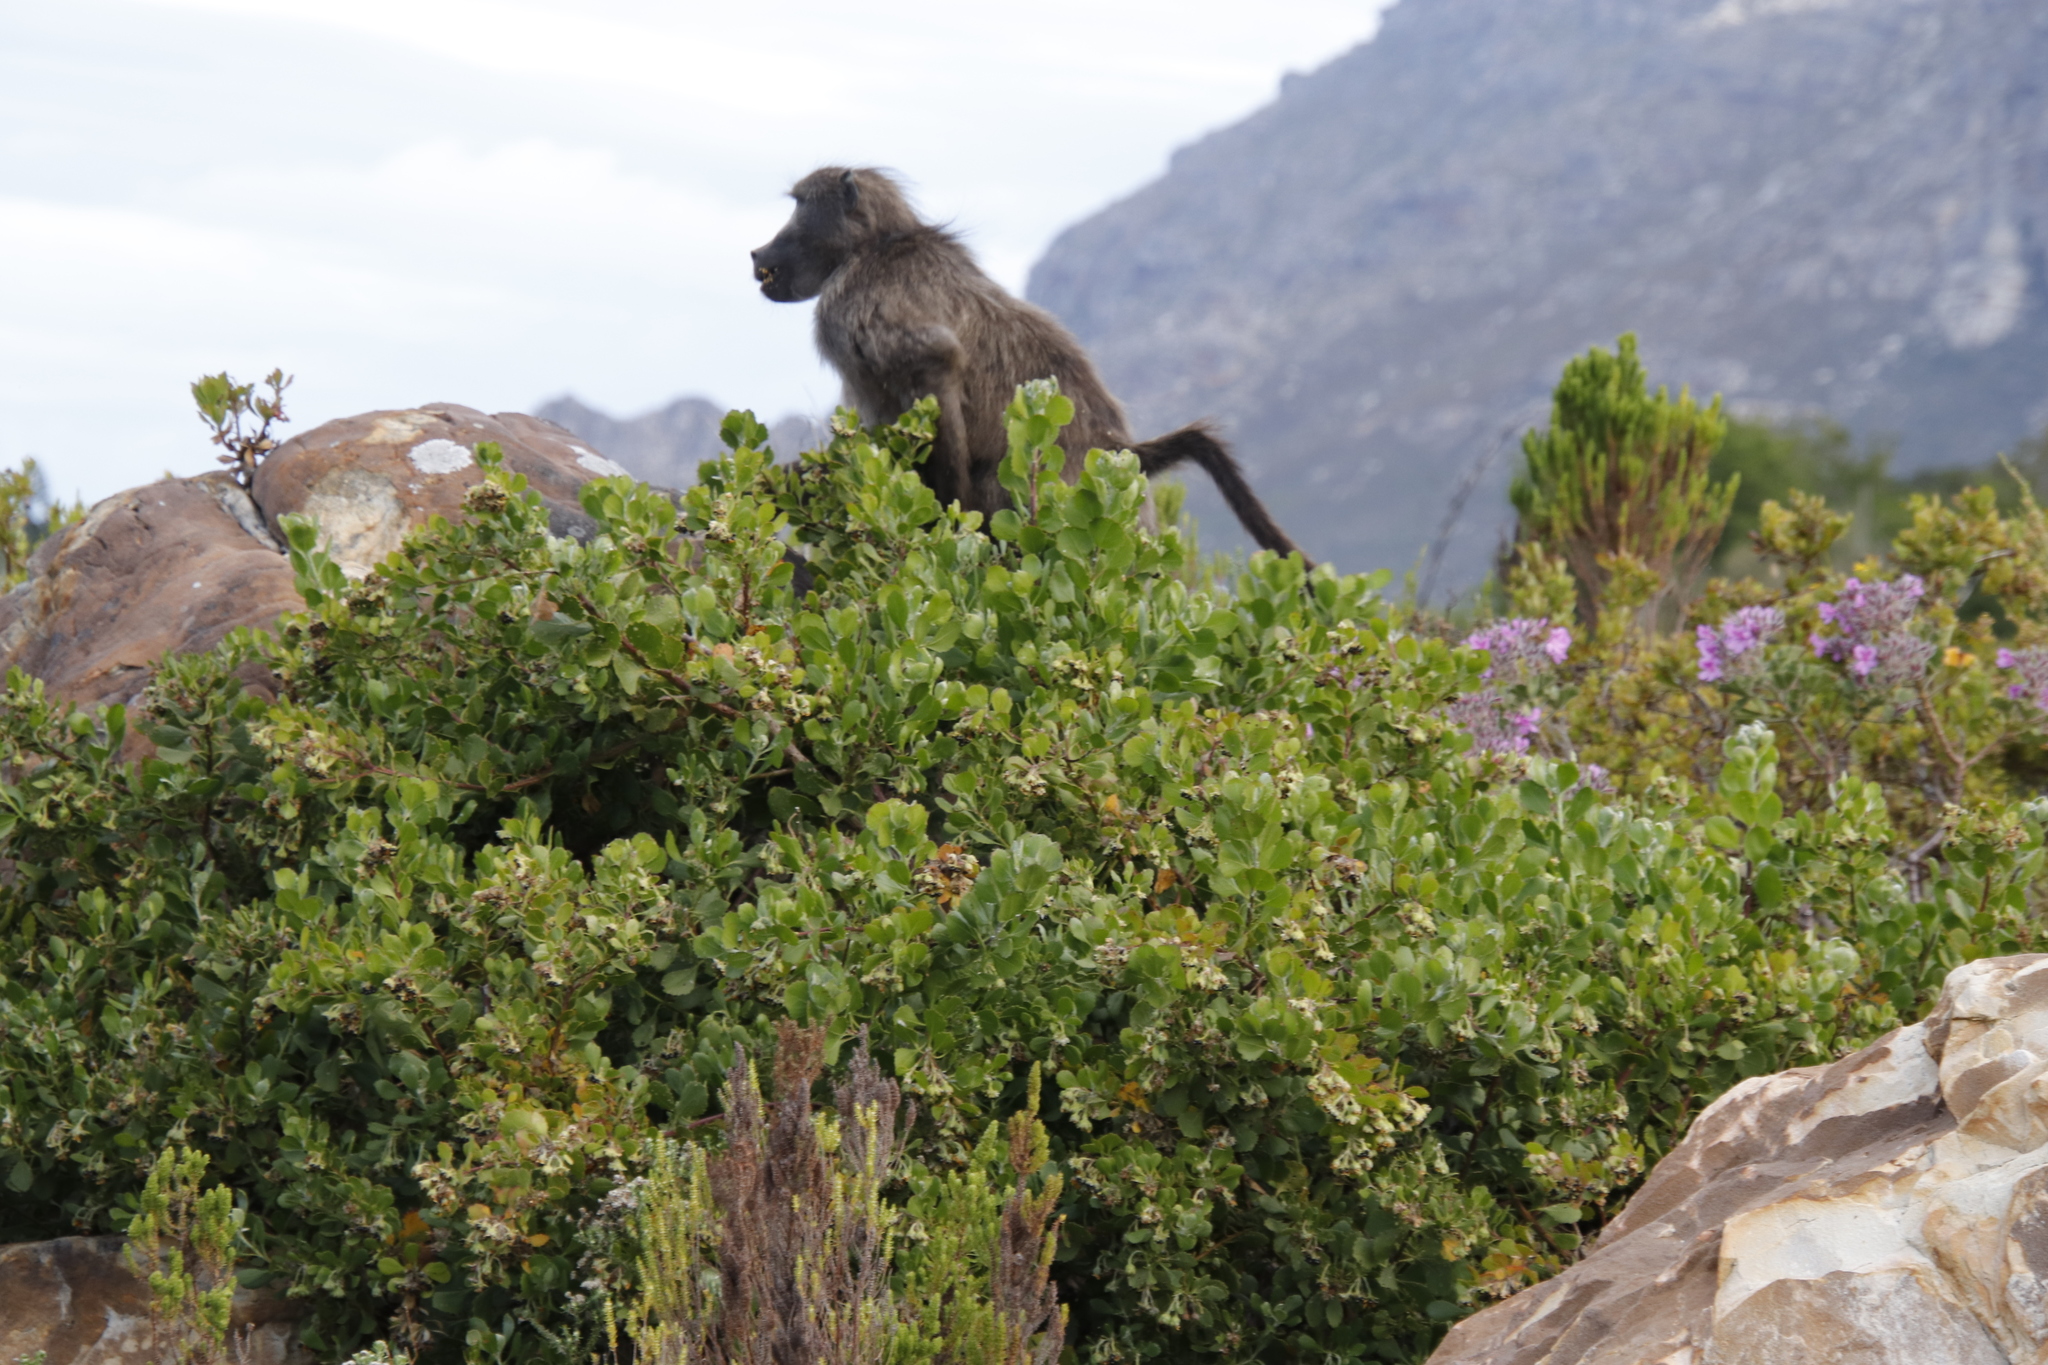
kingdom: Animalia
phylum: Chordata
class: Mammalia
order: Primates
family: Cercopithecidae
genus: Papio
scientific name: Papio ursinus
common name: Chacma baboon
